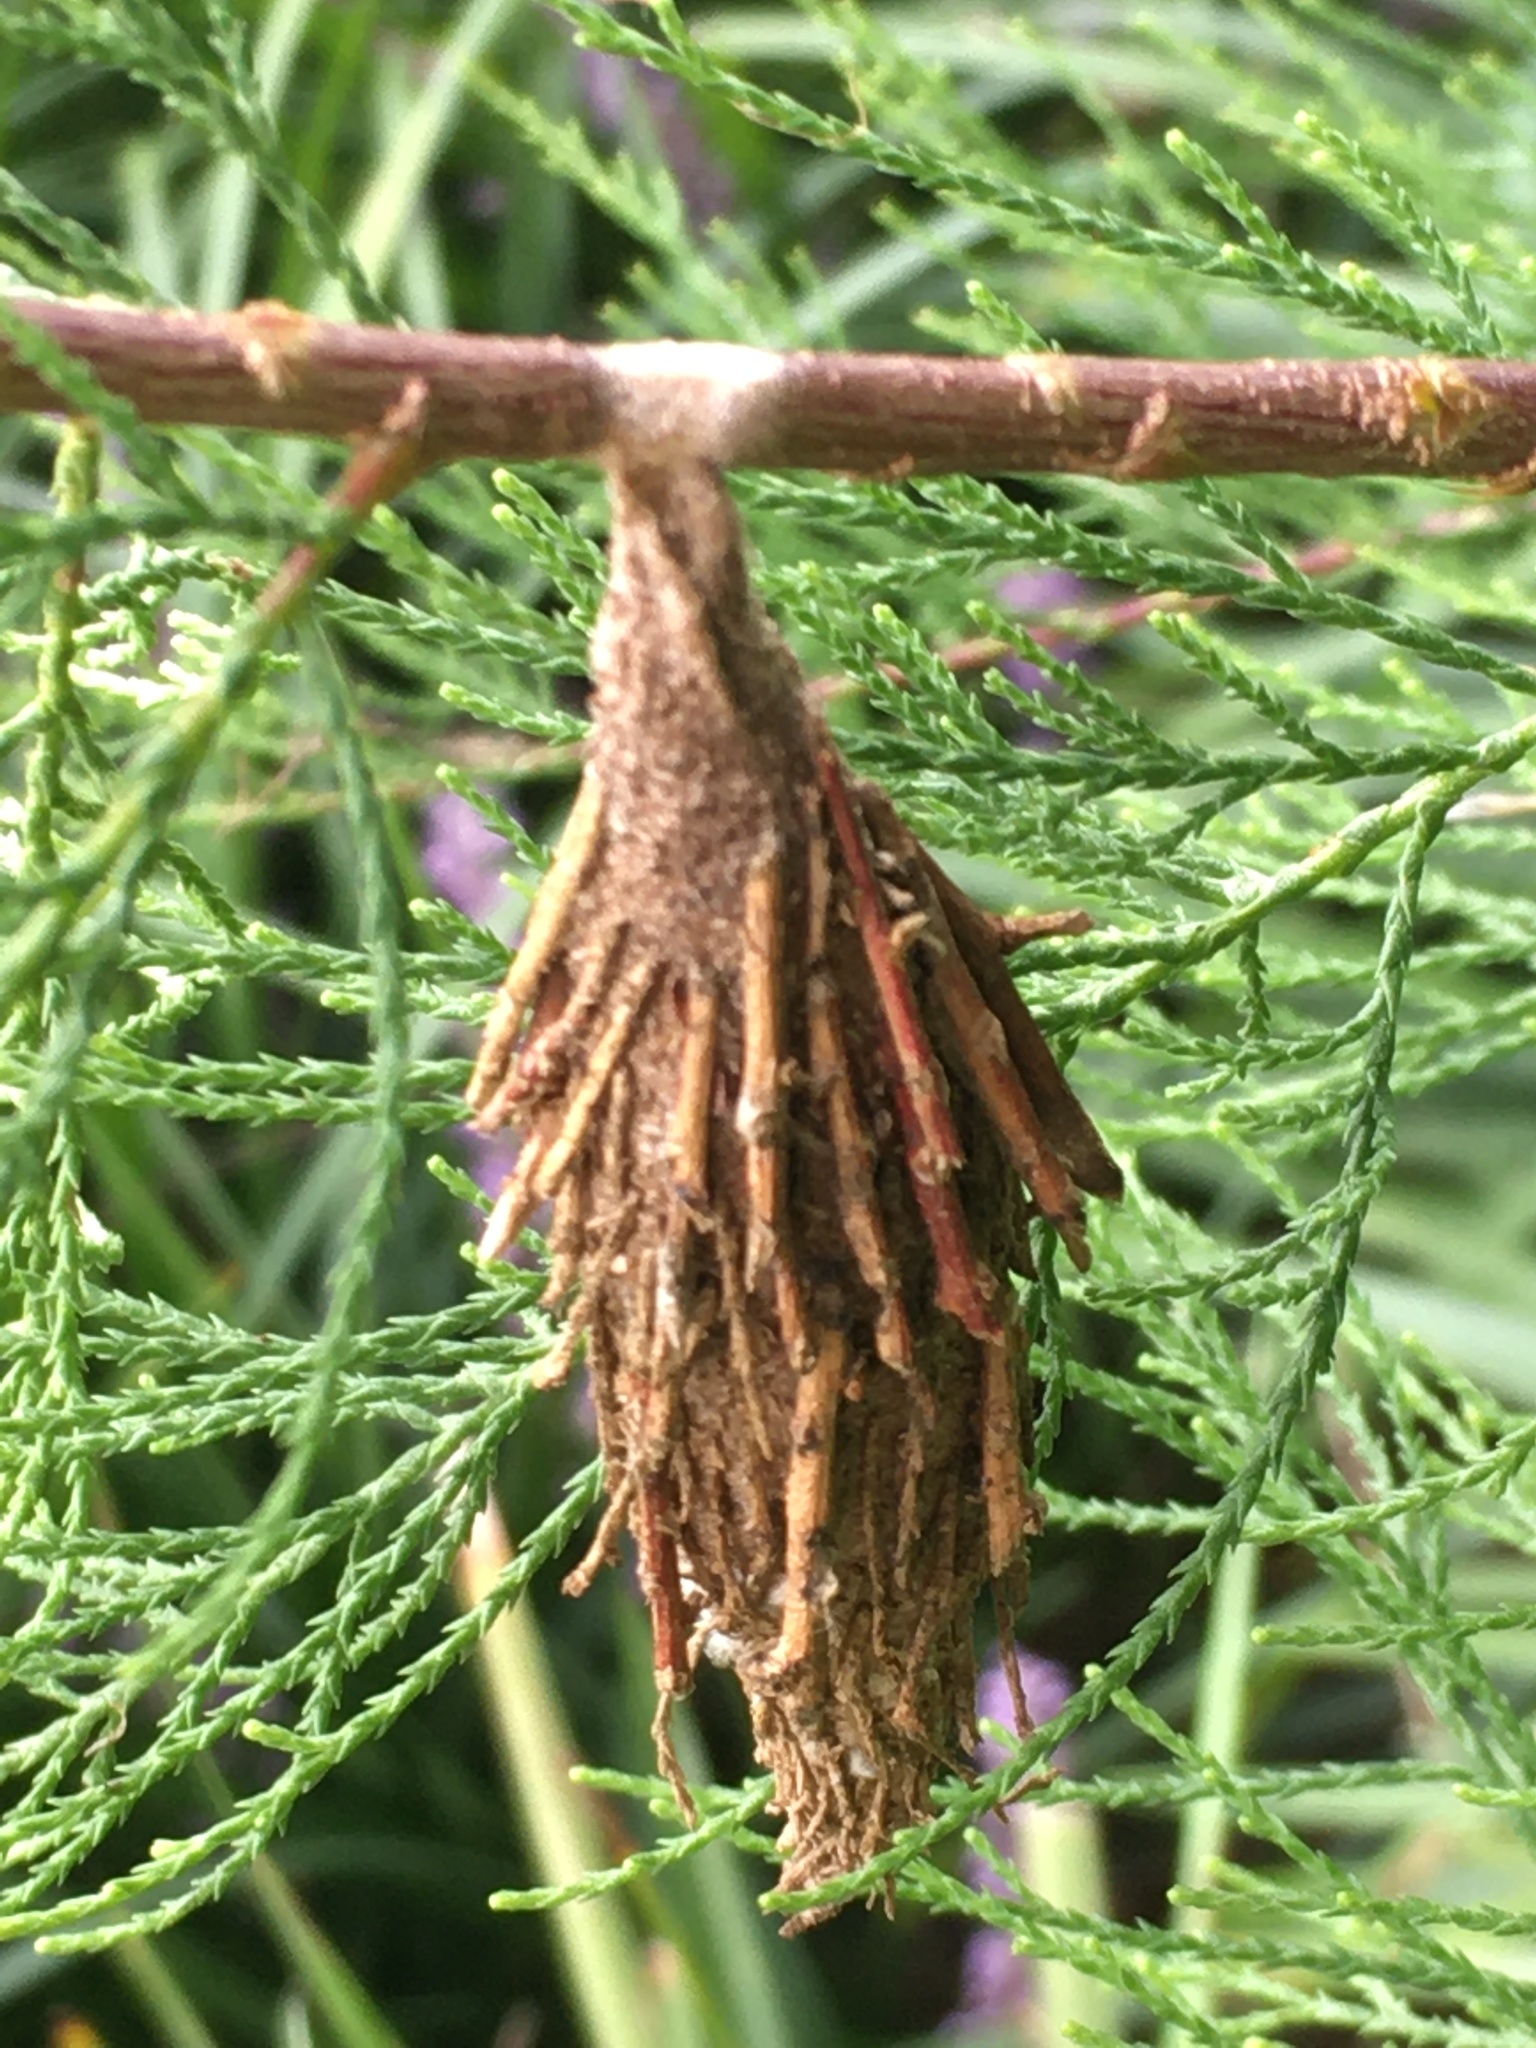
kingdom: Animalia
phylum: Arthropoda
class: Insecta
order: Lepidoptera
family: Psychidae
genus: Thyridopteryx
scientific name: Thyridopteryx ephemeraeformis
